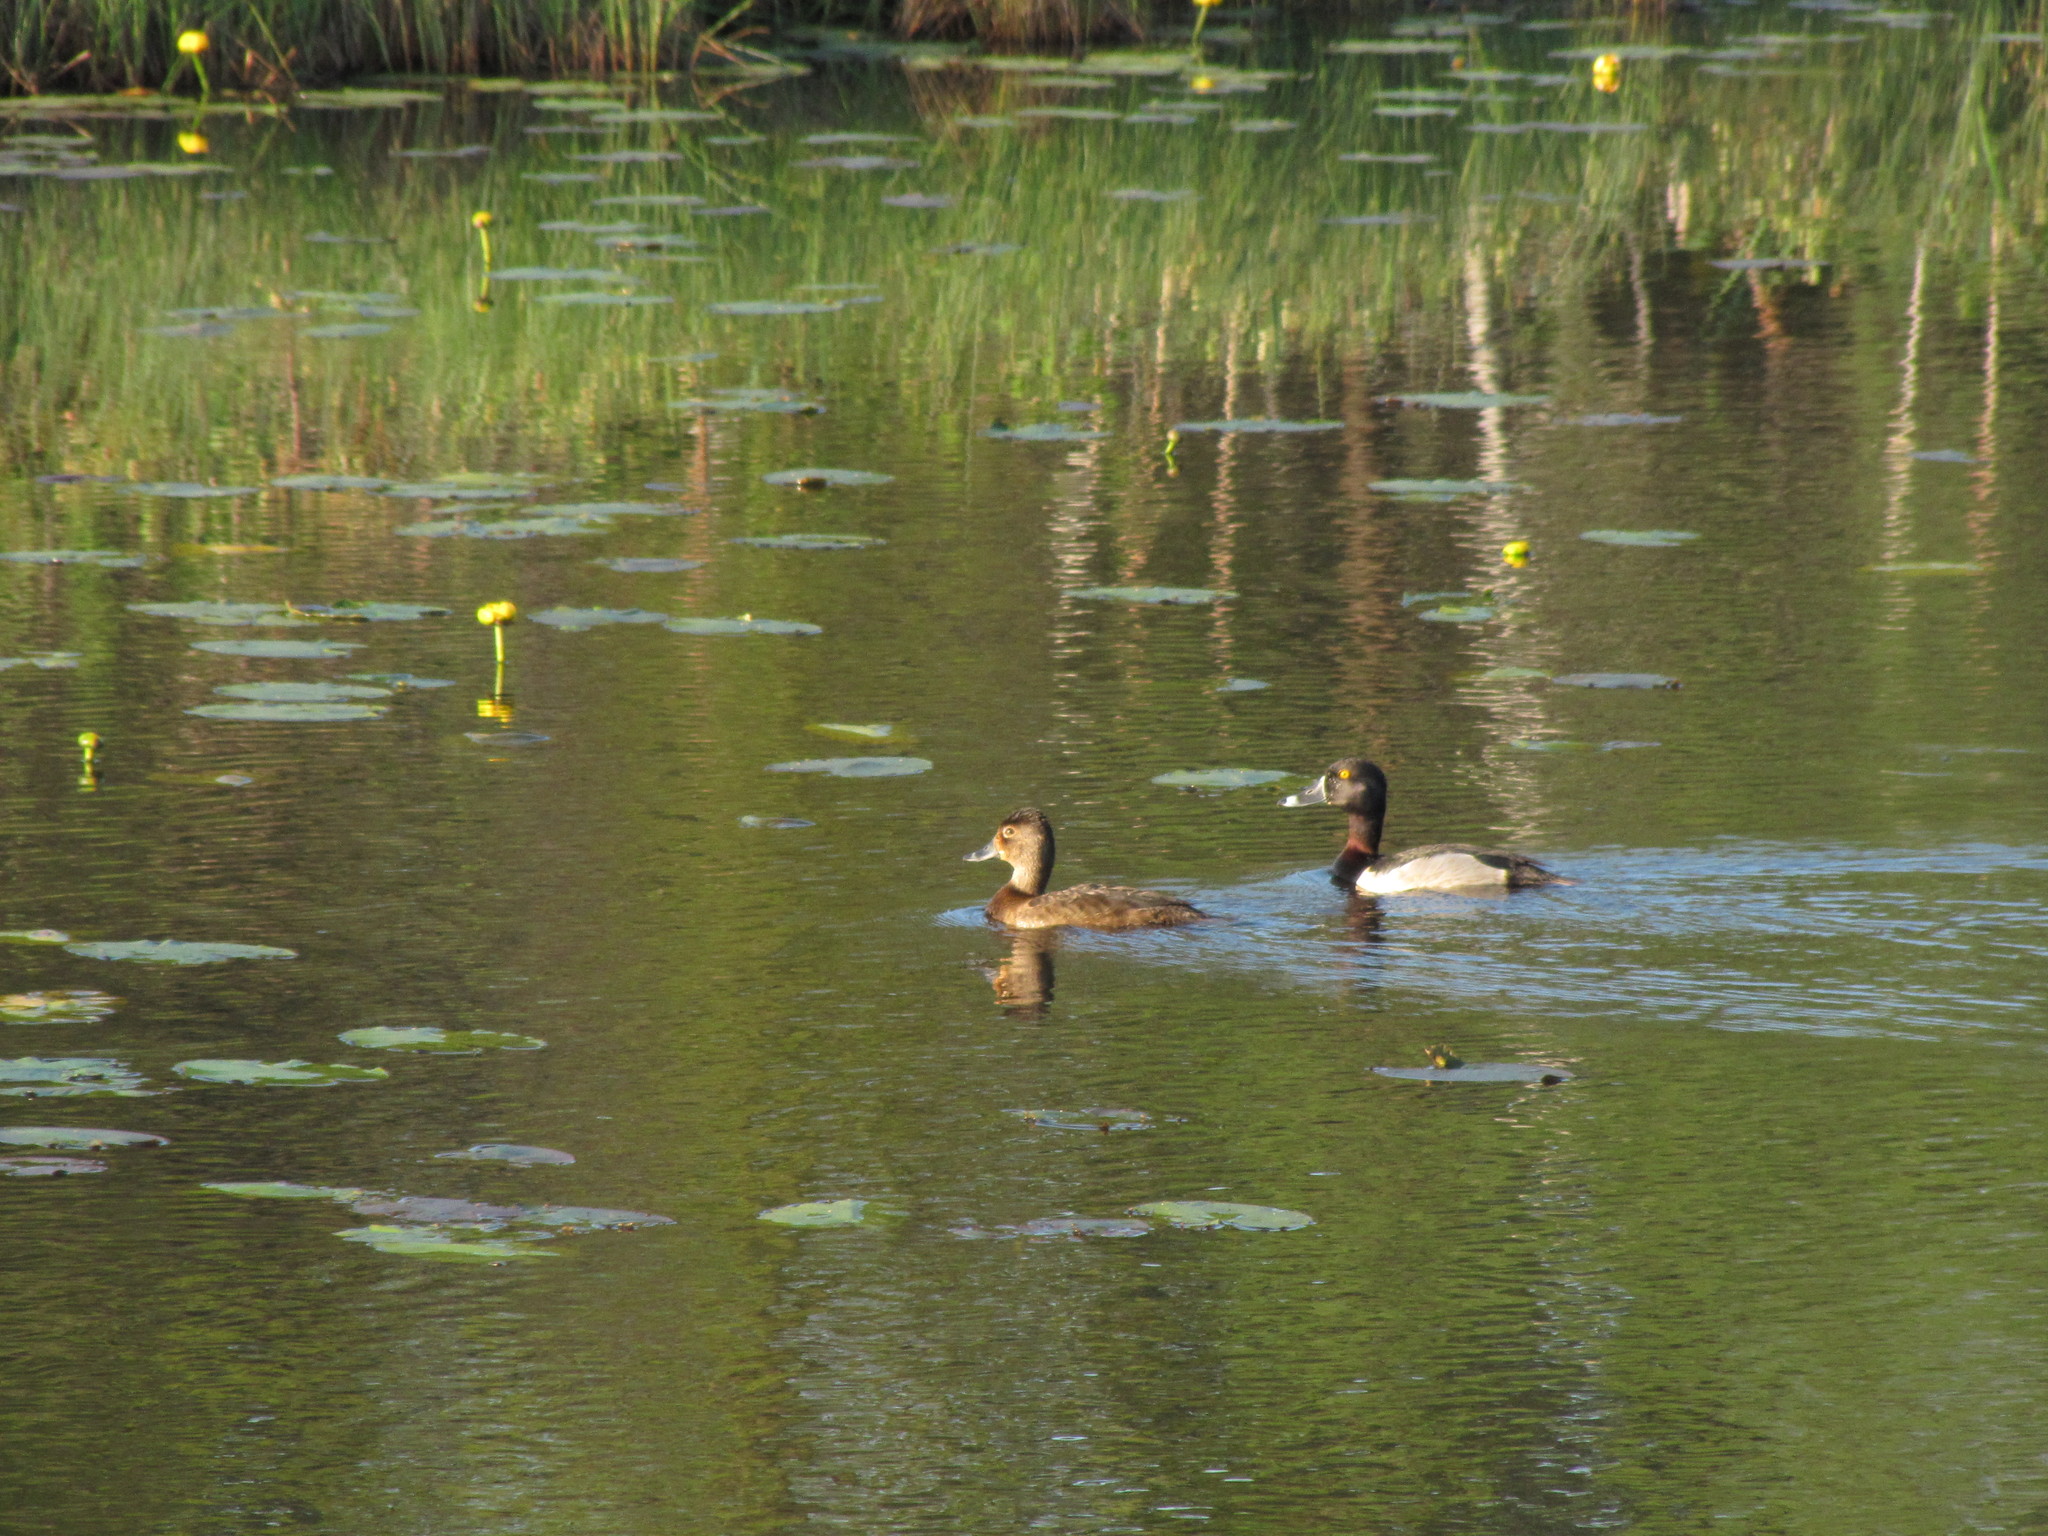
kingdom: Animalia
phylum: Chordata
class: Aves
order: Anseriformes
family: Anatidae
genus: Aythya
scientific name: Aythya collaris
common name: Ring-necked duck
